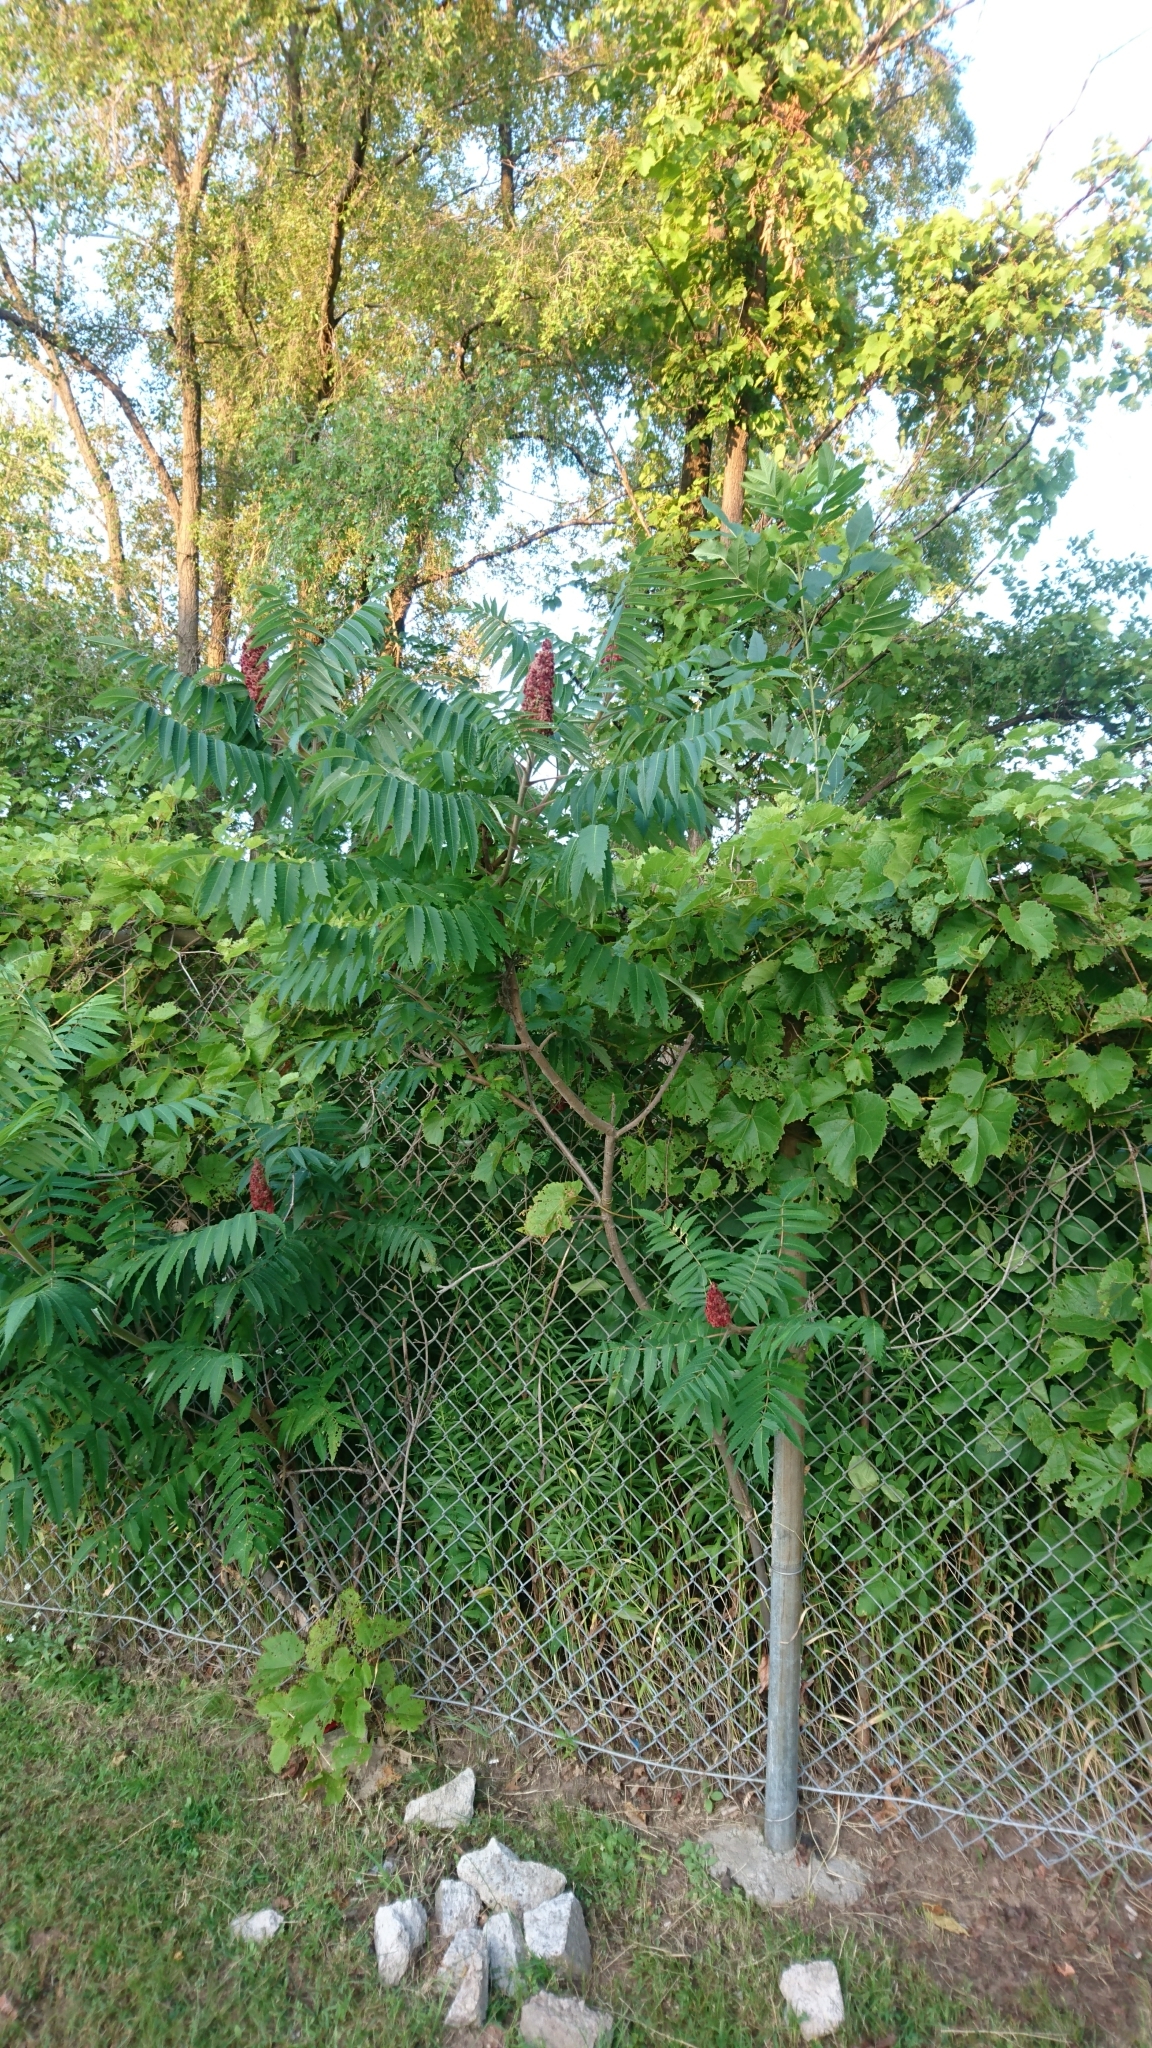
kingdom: Plantae
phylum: Tracheophyta
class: Magnoliopsida
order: Sapindales
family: Anacardiaceae
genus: Rhus
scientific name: Rhus typhina
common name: Staghorn sumac
